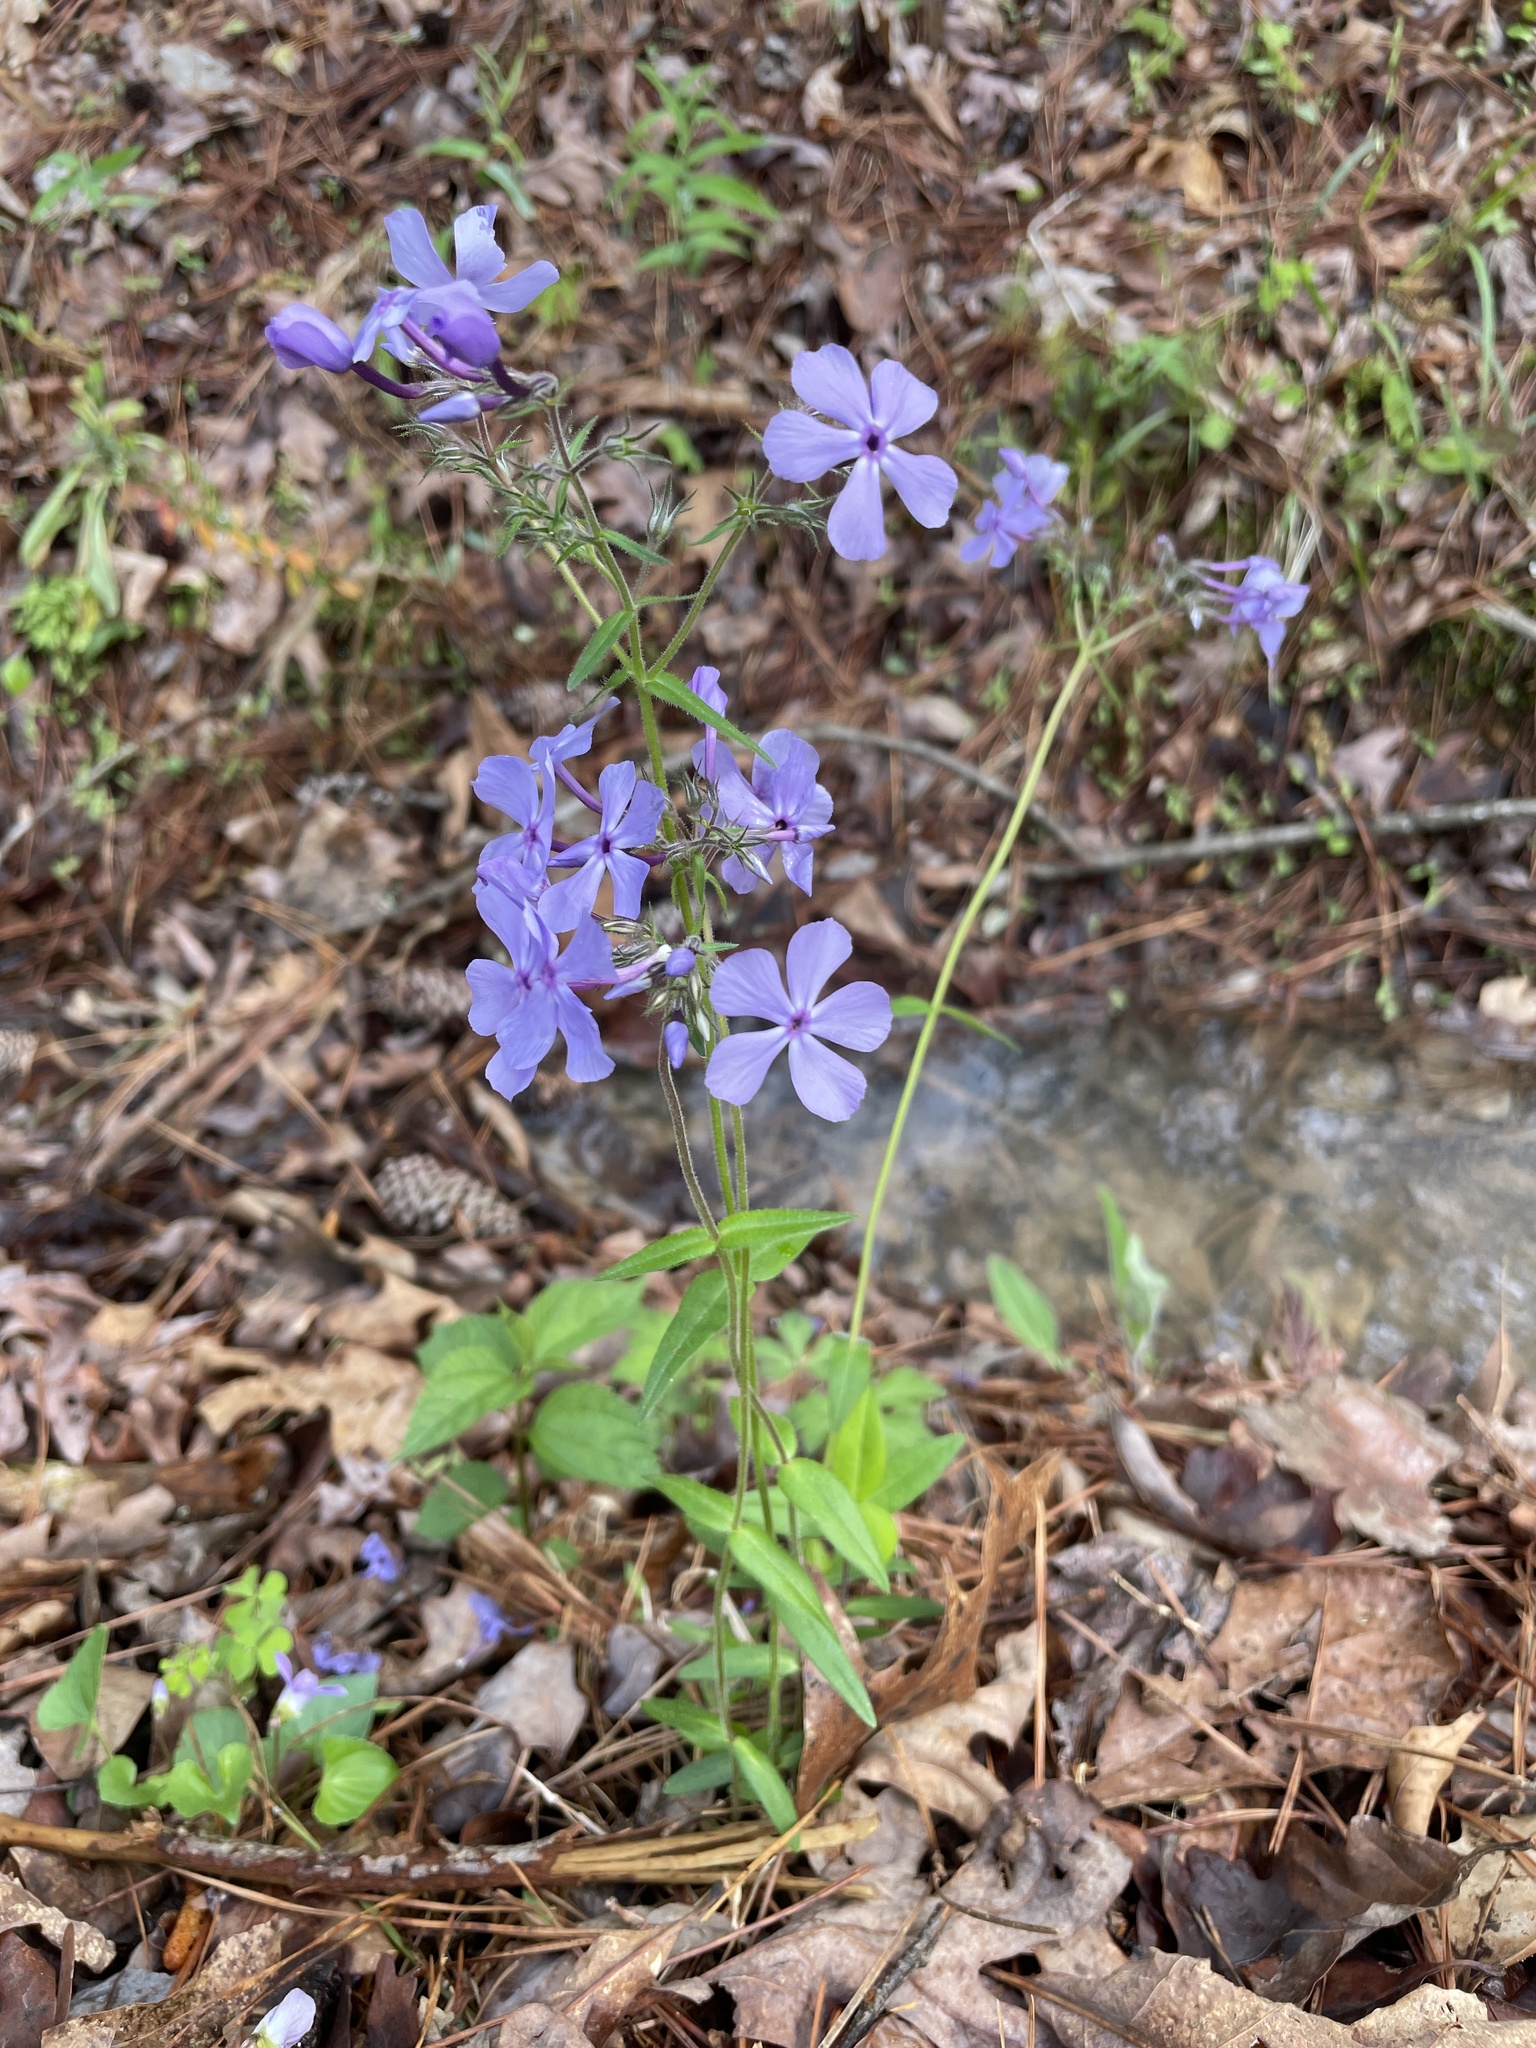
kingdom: Plantae
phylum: Tracheophyta
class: Magnoliopsida
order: Ericales
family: Polemoniaceae
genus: Phlox
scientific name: Phlox divaricata
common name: Blue phlox
